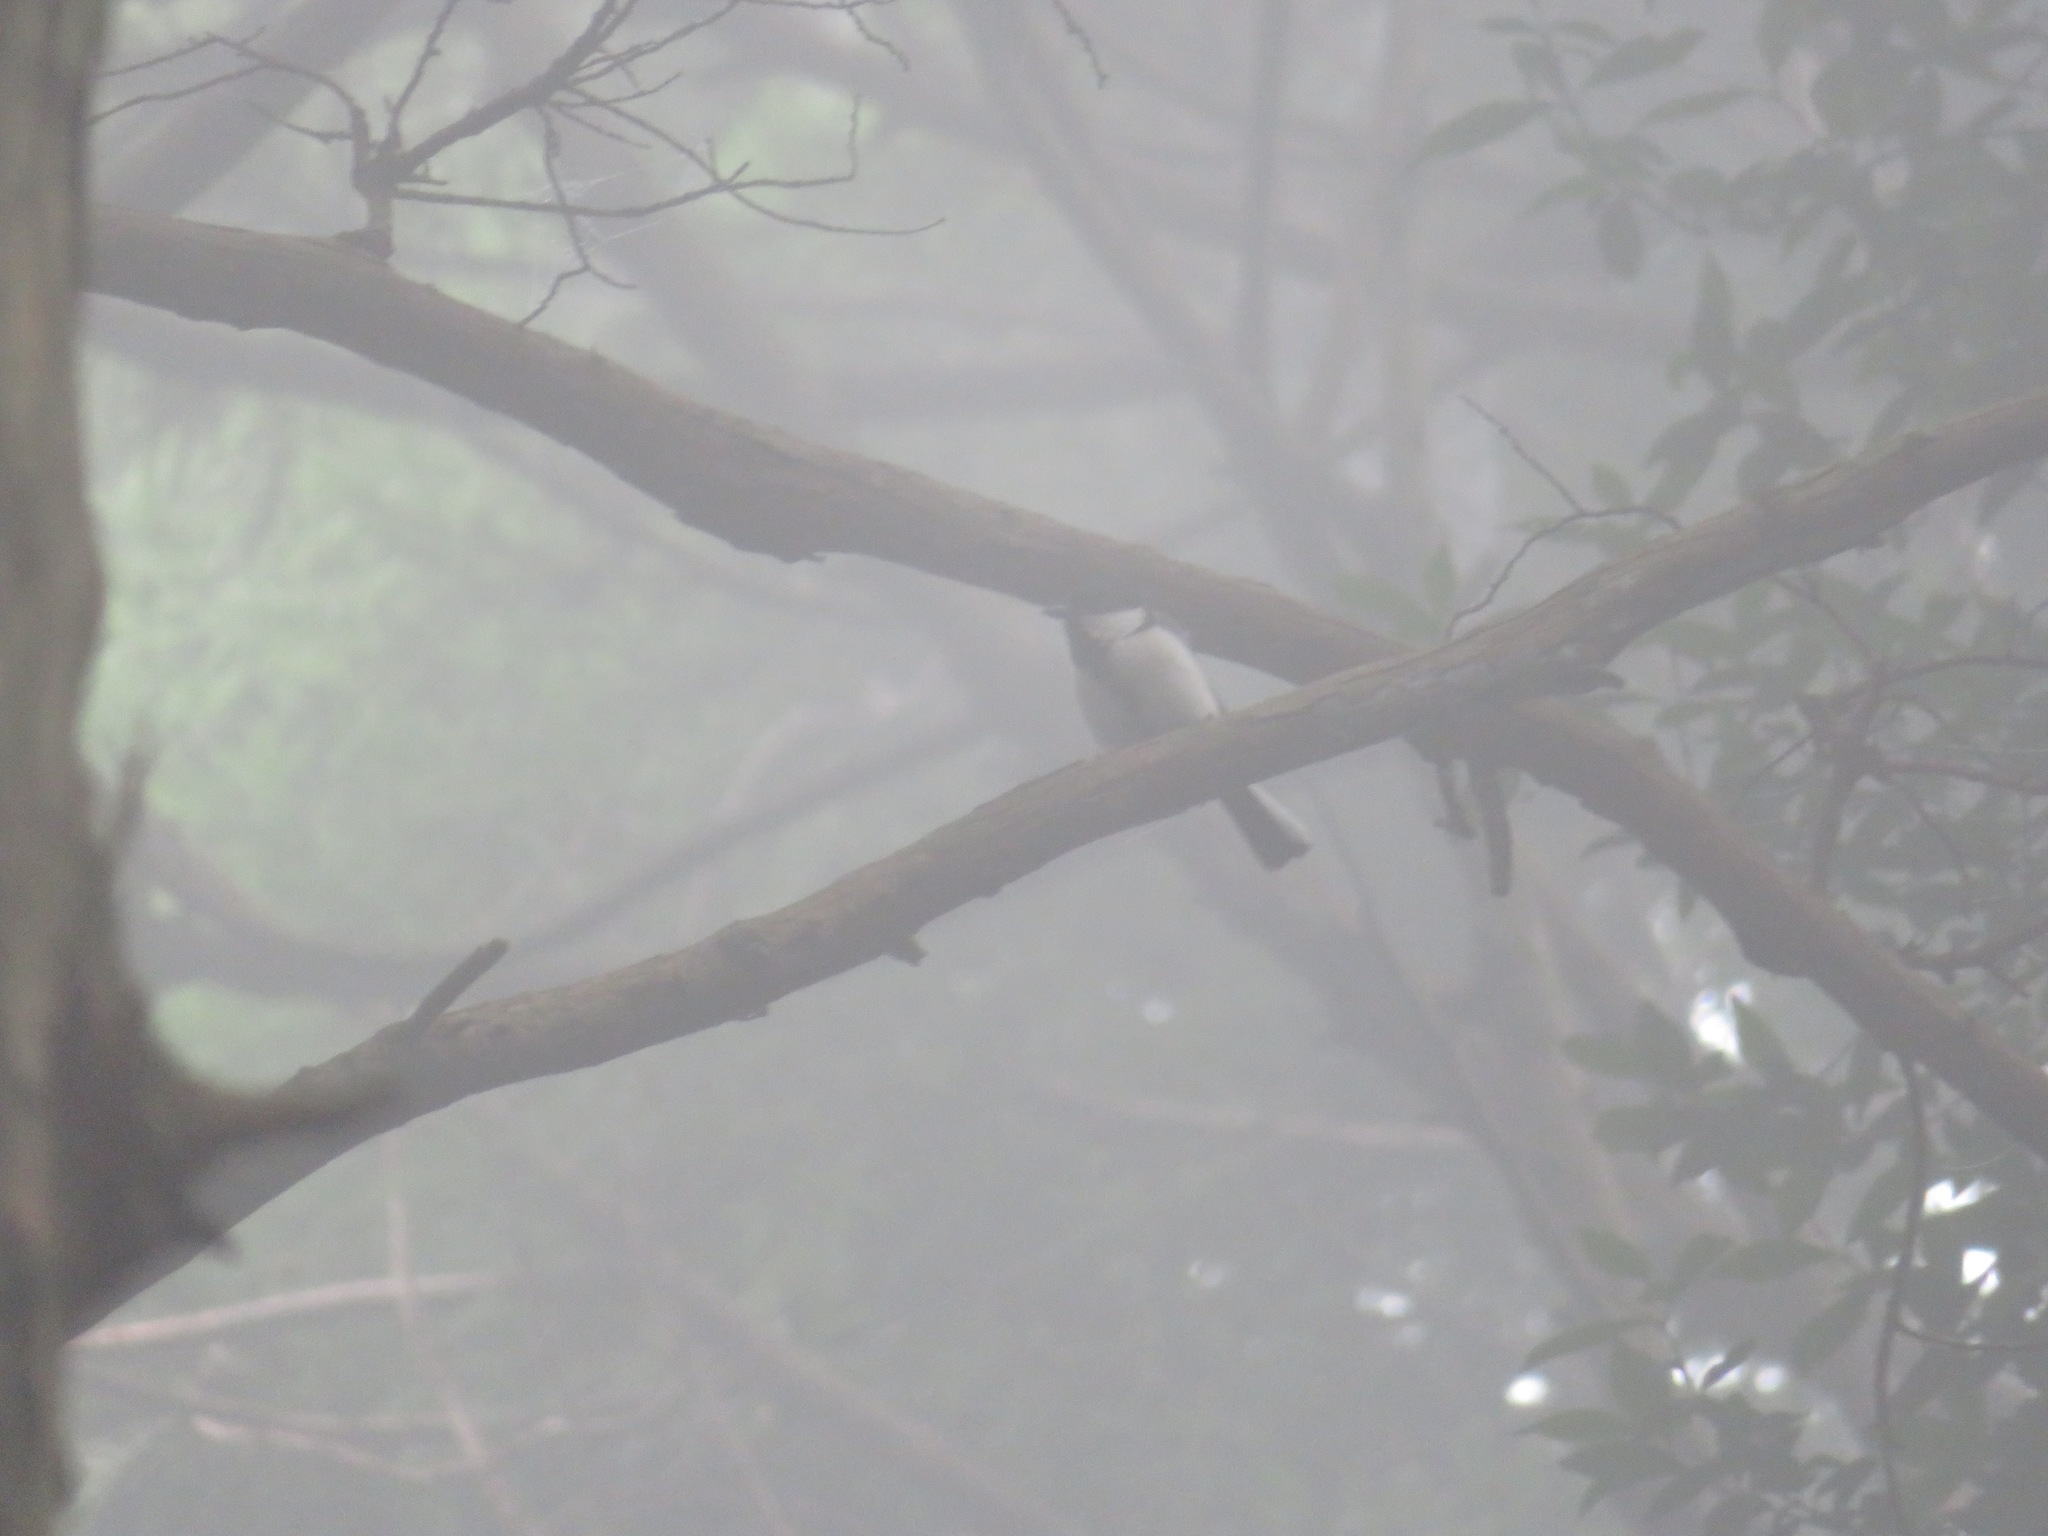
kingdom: Animalia
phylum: Chordata
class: Aves
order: Passeriformes
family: Paridae
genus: Parus
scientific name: Parus minor
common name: Japanese tit
